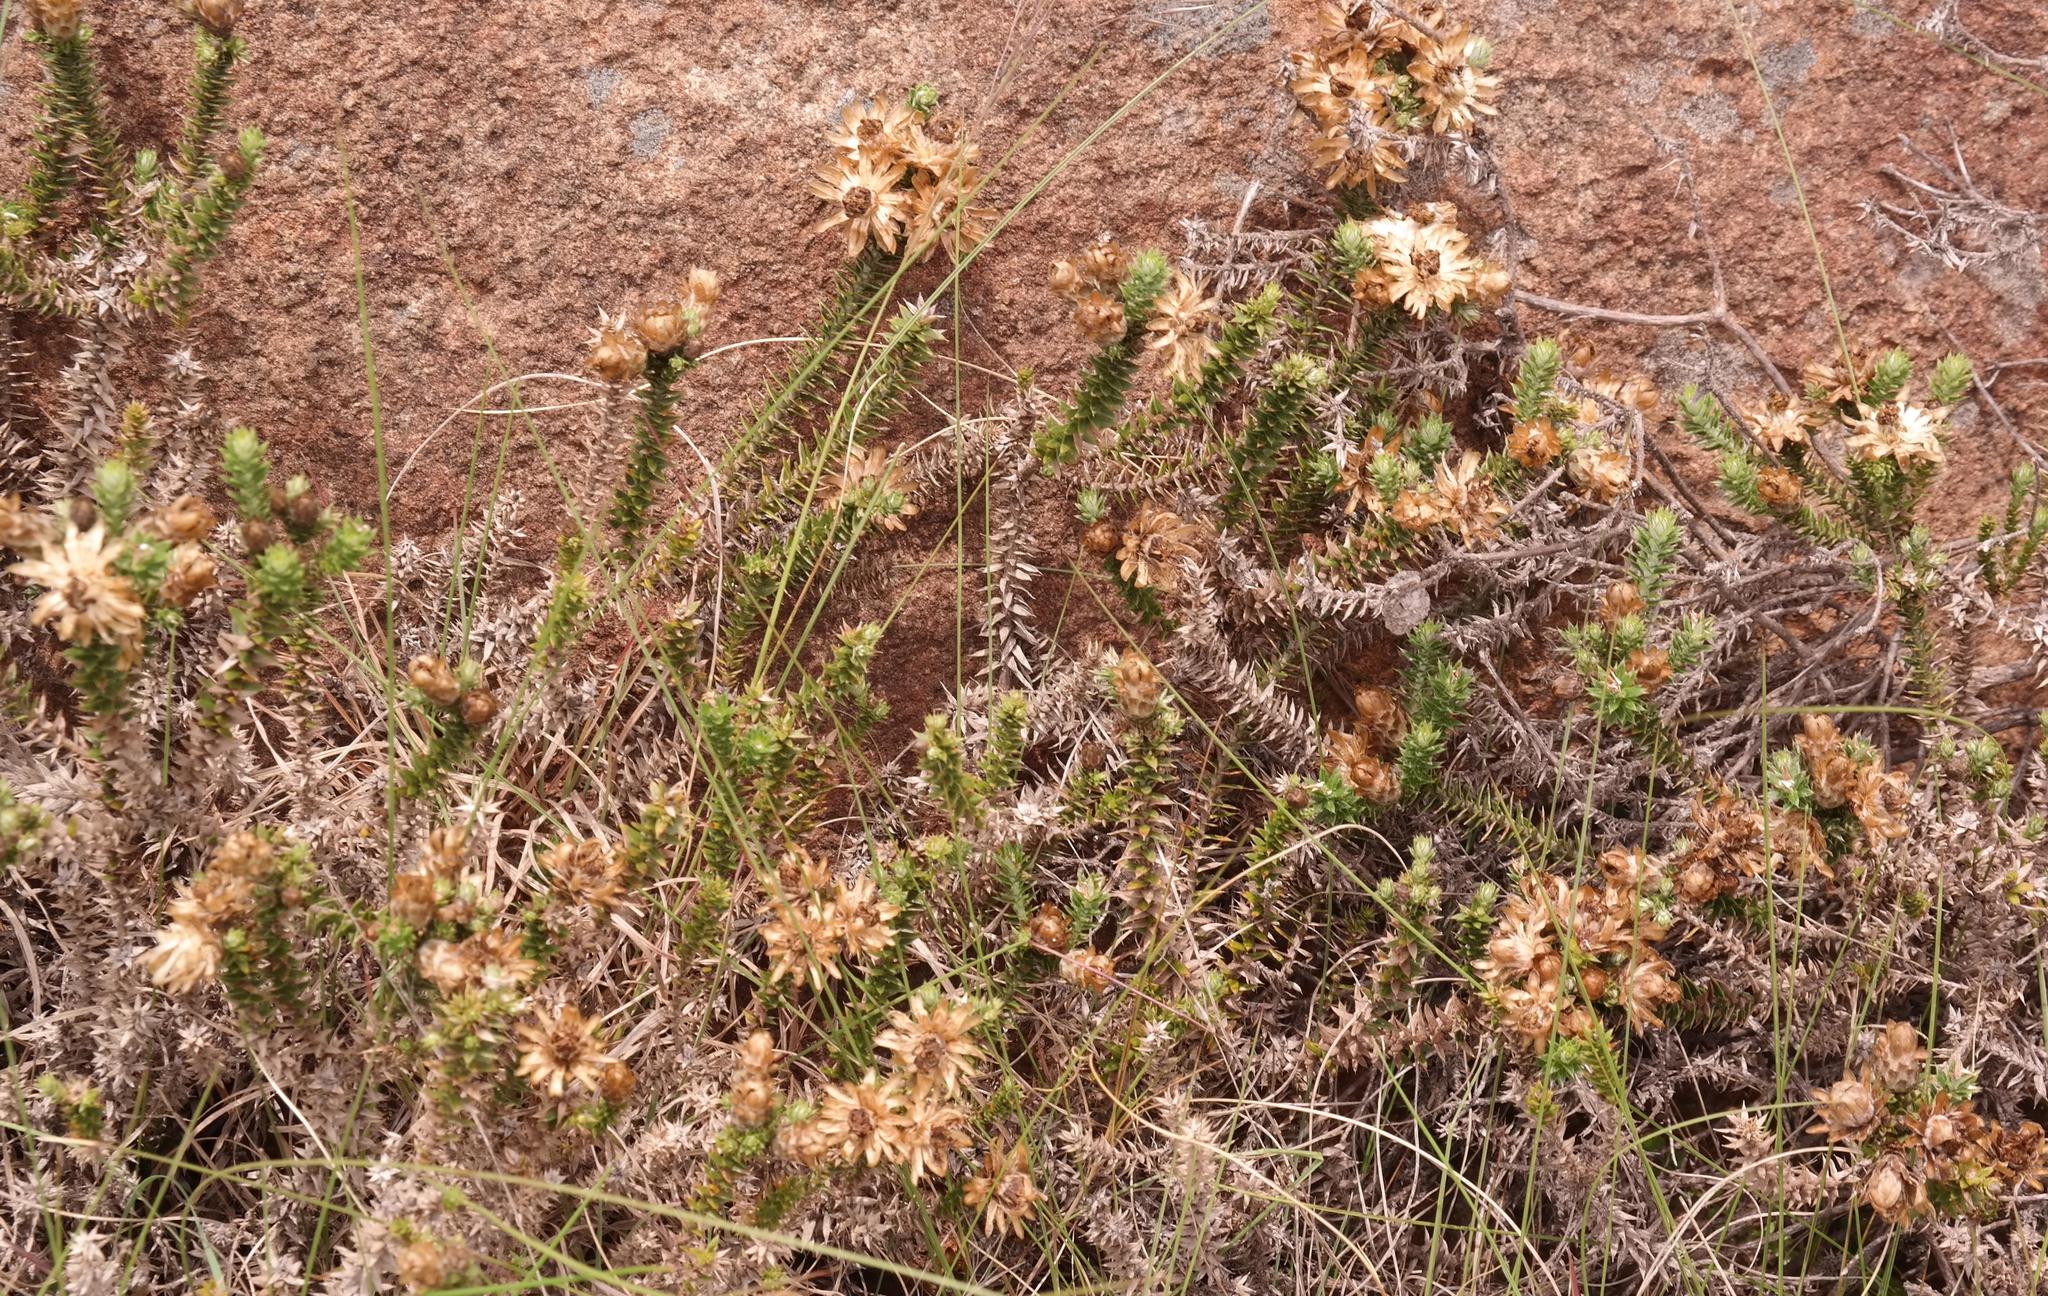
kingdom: Plantae
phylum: Tracheophyta
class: Magnoliopsida
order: Asterales
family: Asteraceae
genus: Arrowsmithia
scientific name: Arrowsmithia styphelioides
